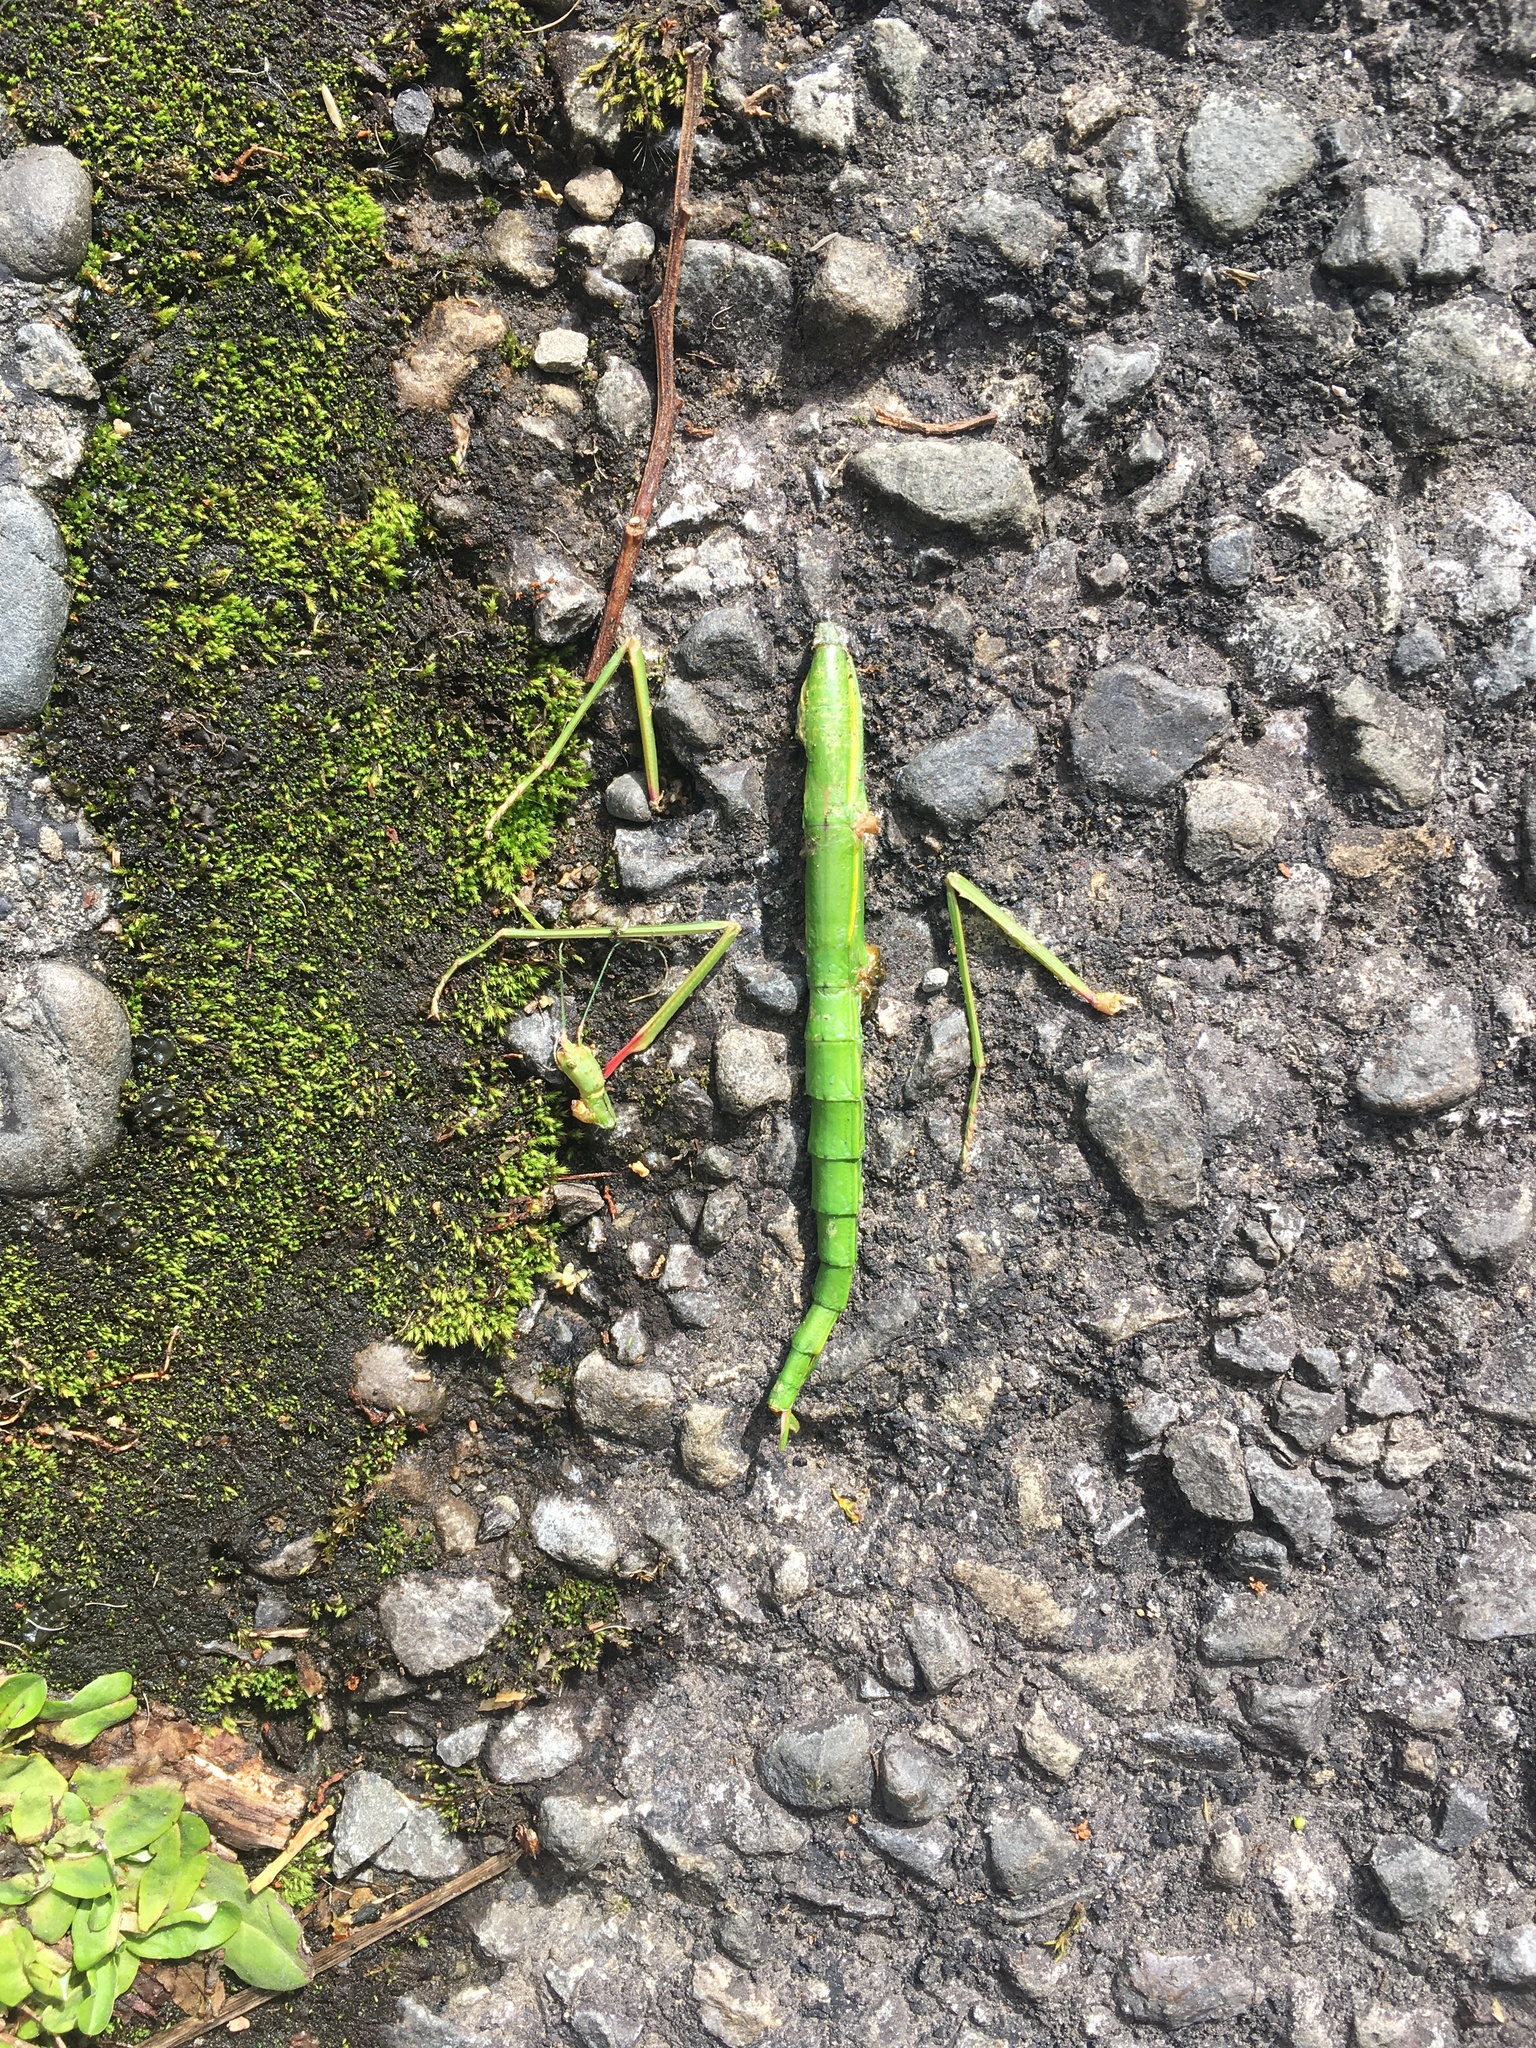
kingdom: Animalia
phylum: Arthropoda
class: Insecta
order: Phasmida
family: Phasmatidae
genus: Acanthoxyla
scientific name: Acanthoxyla inermis
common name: Unarmed stick insect
